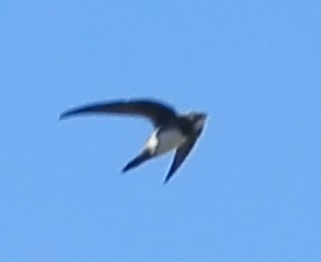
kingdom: Animalia
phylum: Chordata
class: Aves
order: Apodiformes
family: Apodidae
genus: Tachymarptis
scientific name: Tachymarptis melba
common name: Alpine swift
